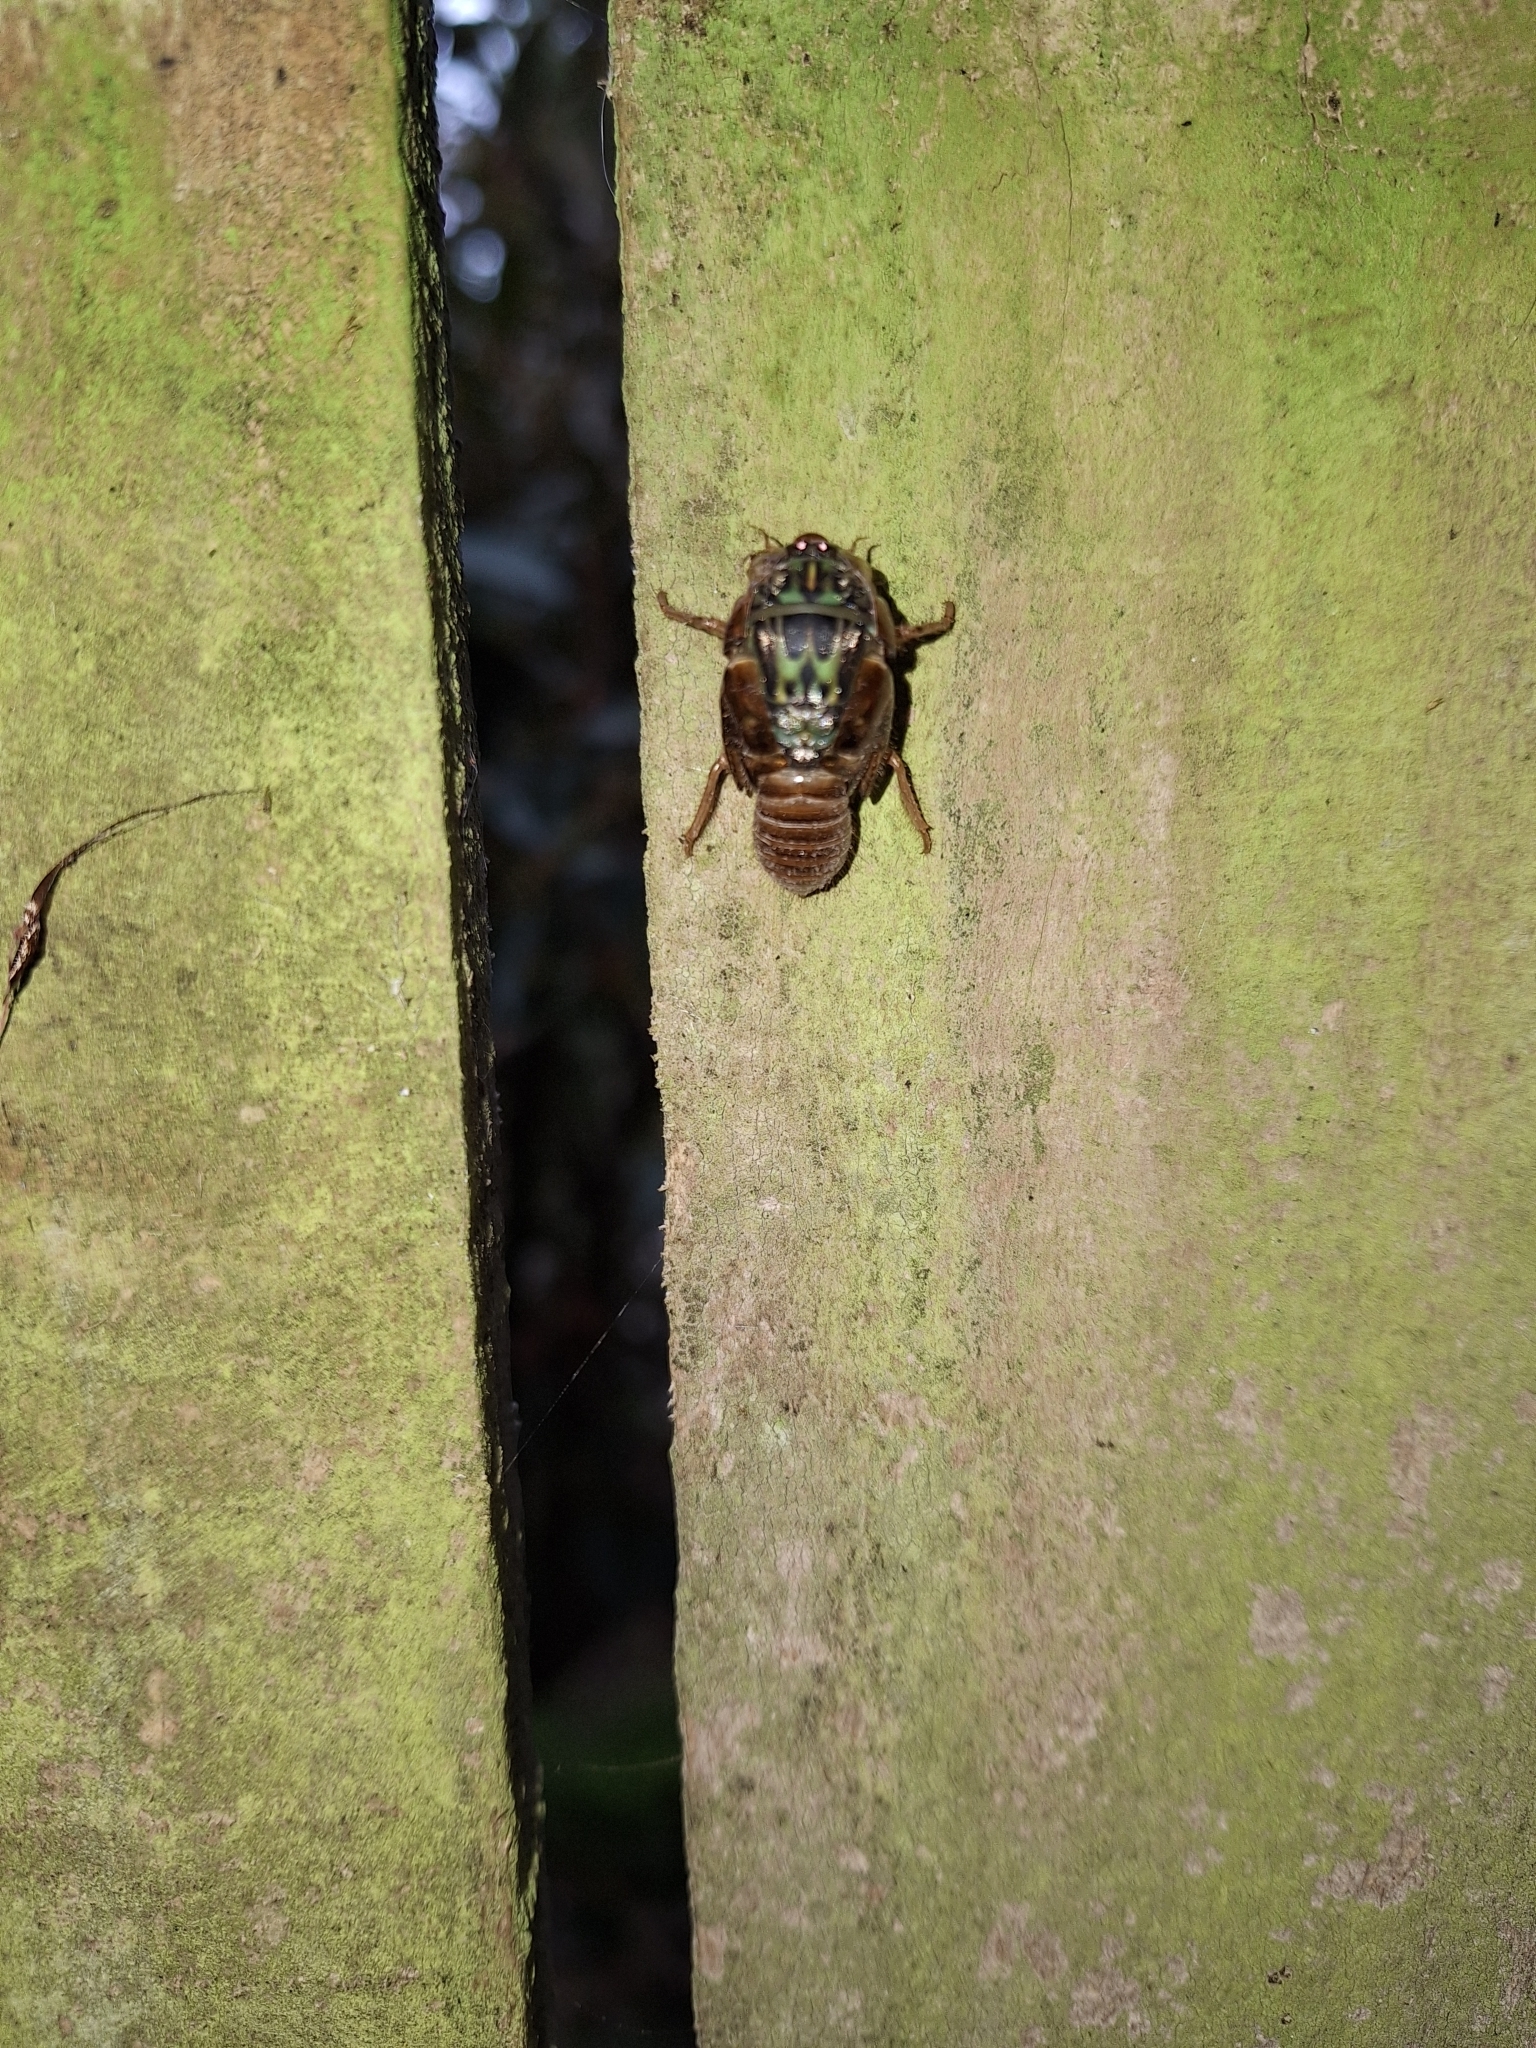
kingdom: Animalia
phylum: Arthropoda
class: Insecta
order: Hemiptera
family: Cicadidae
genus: Amphipsalta
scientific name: Amphipsalta zelandica
